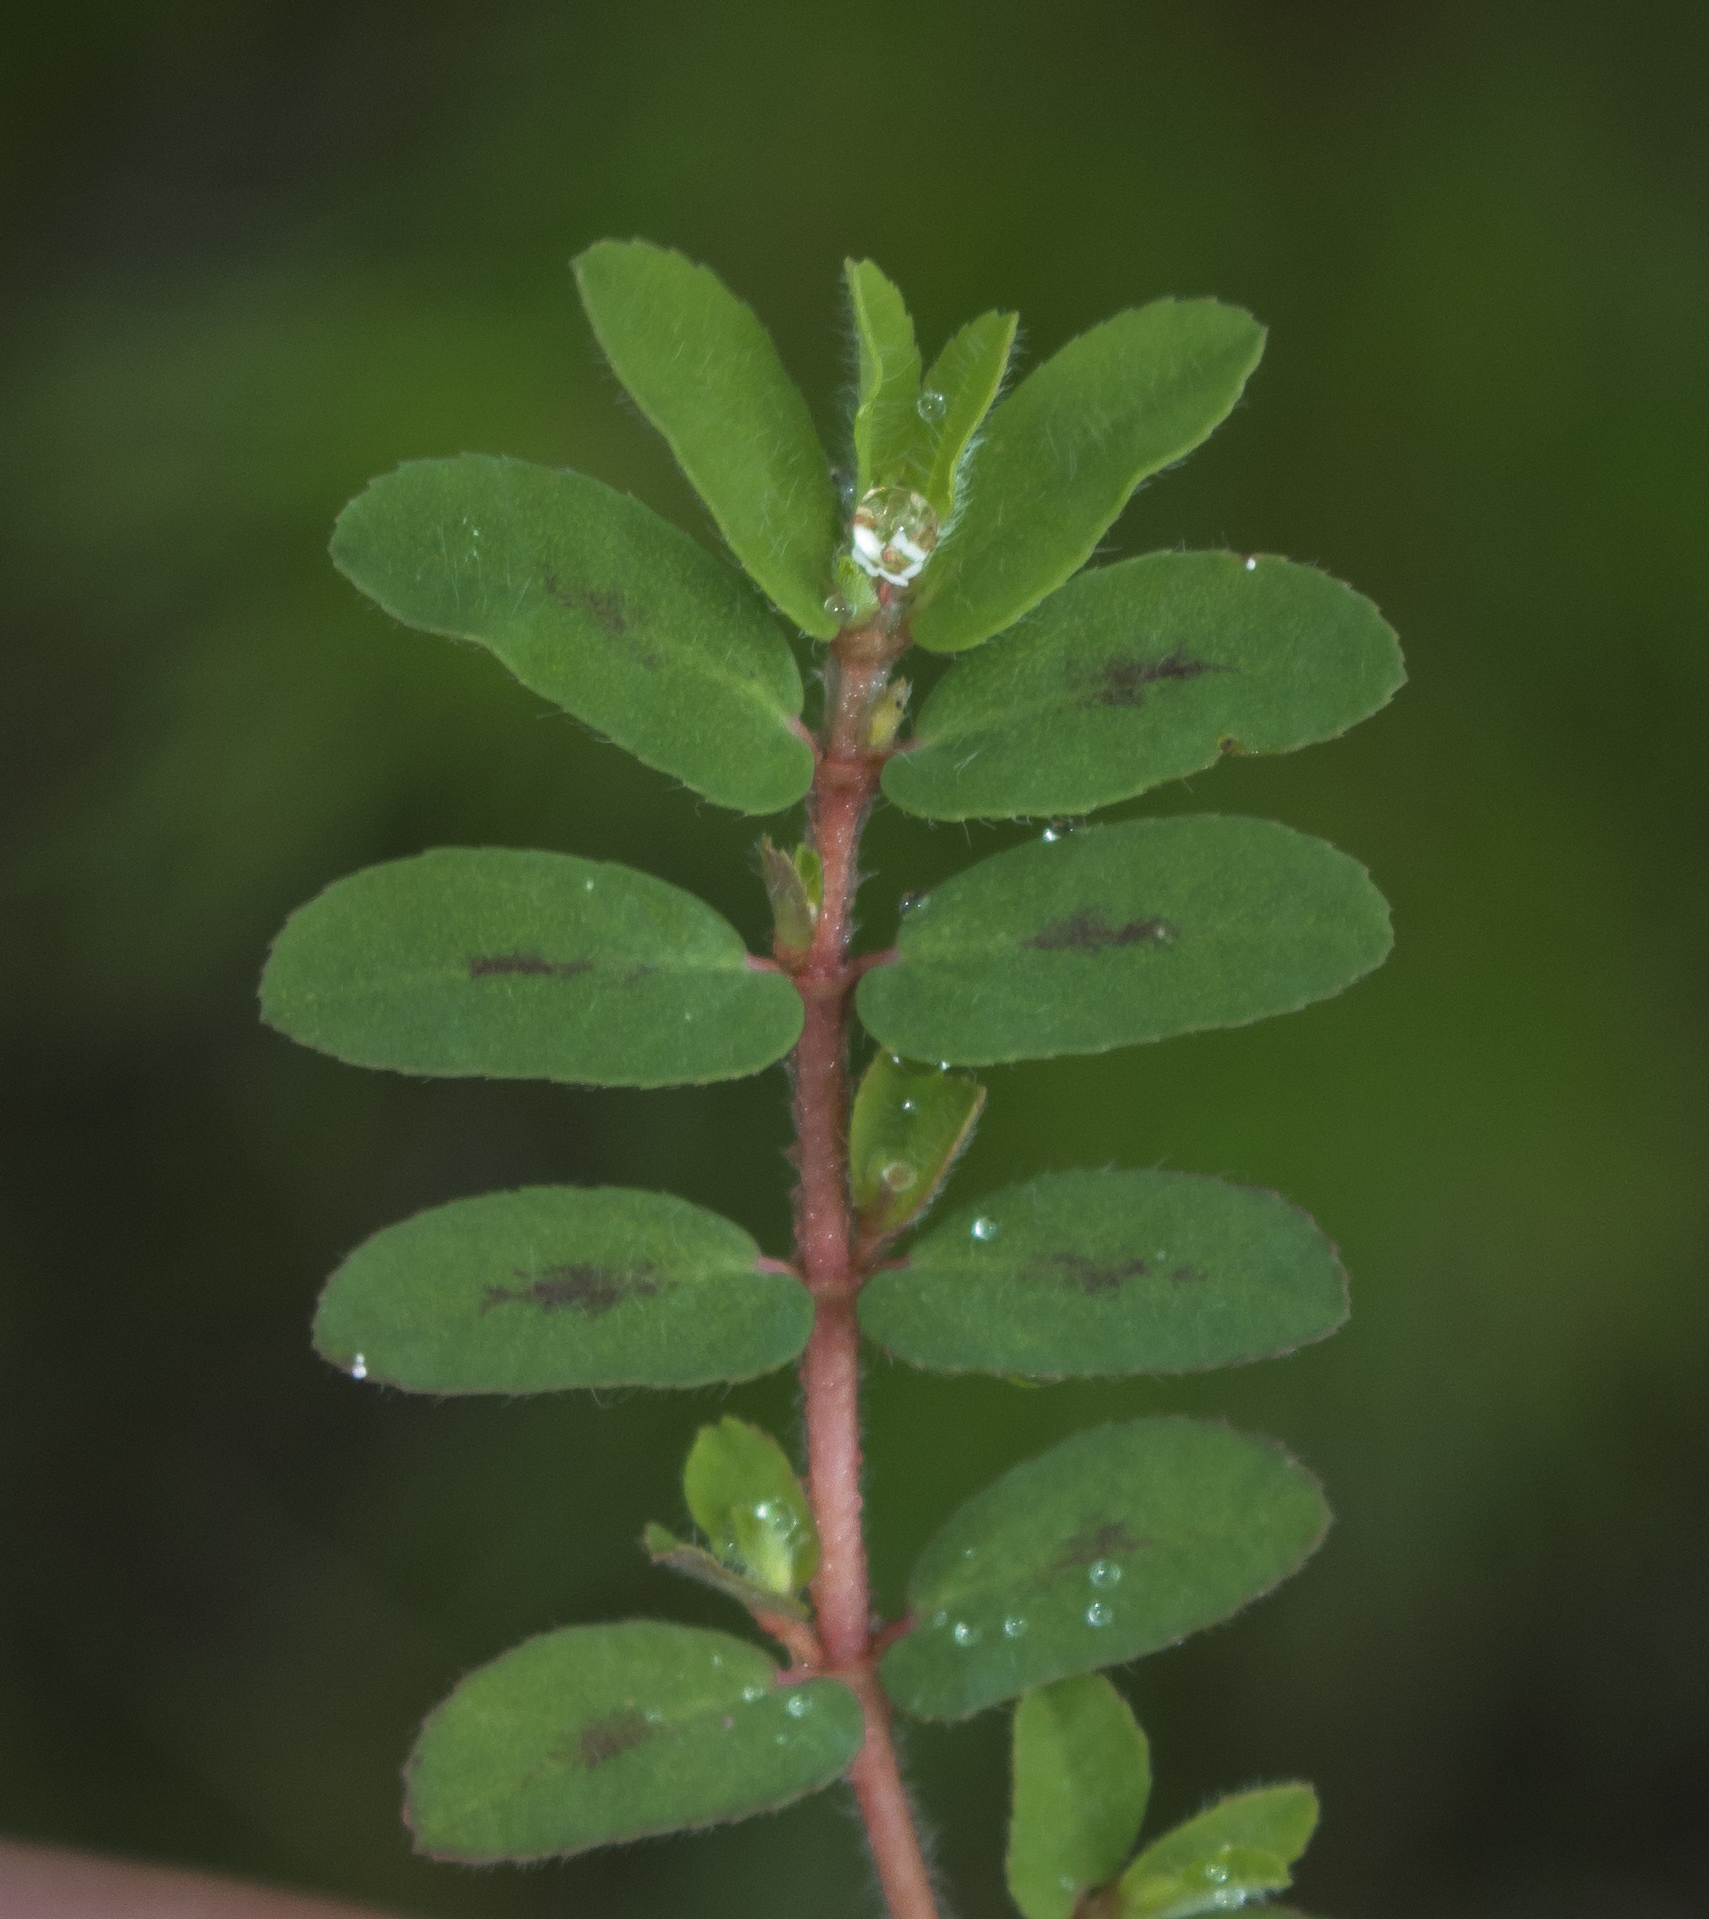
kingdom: Plantae
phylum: Tracheophyta
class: Magnoliopsida
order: Malpighiales
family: Euphorbiaceae
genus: Euphorbia
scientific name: Euphorbia maculata
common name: Spotted spurge
